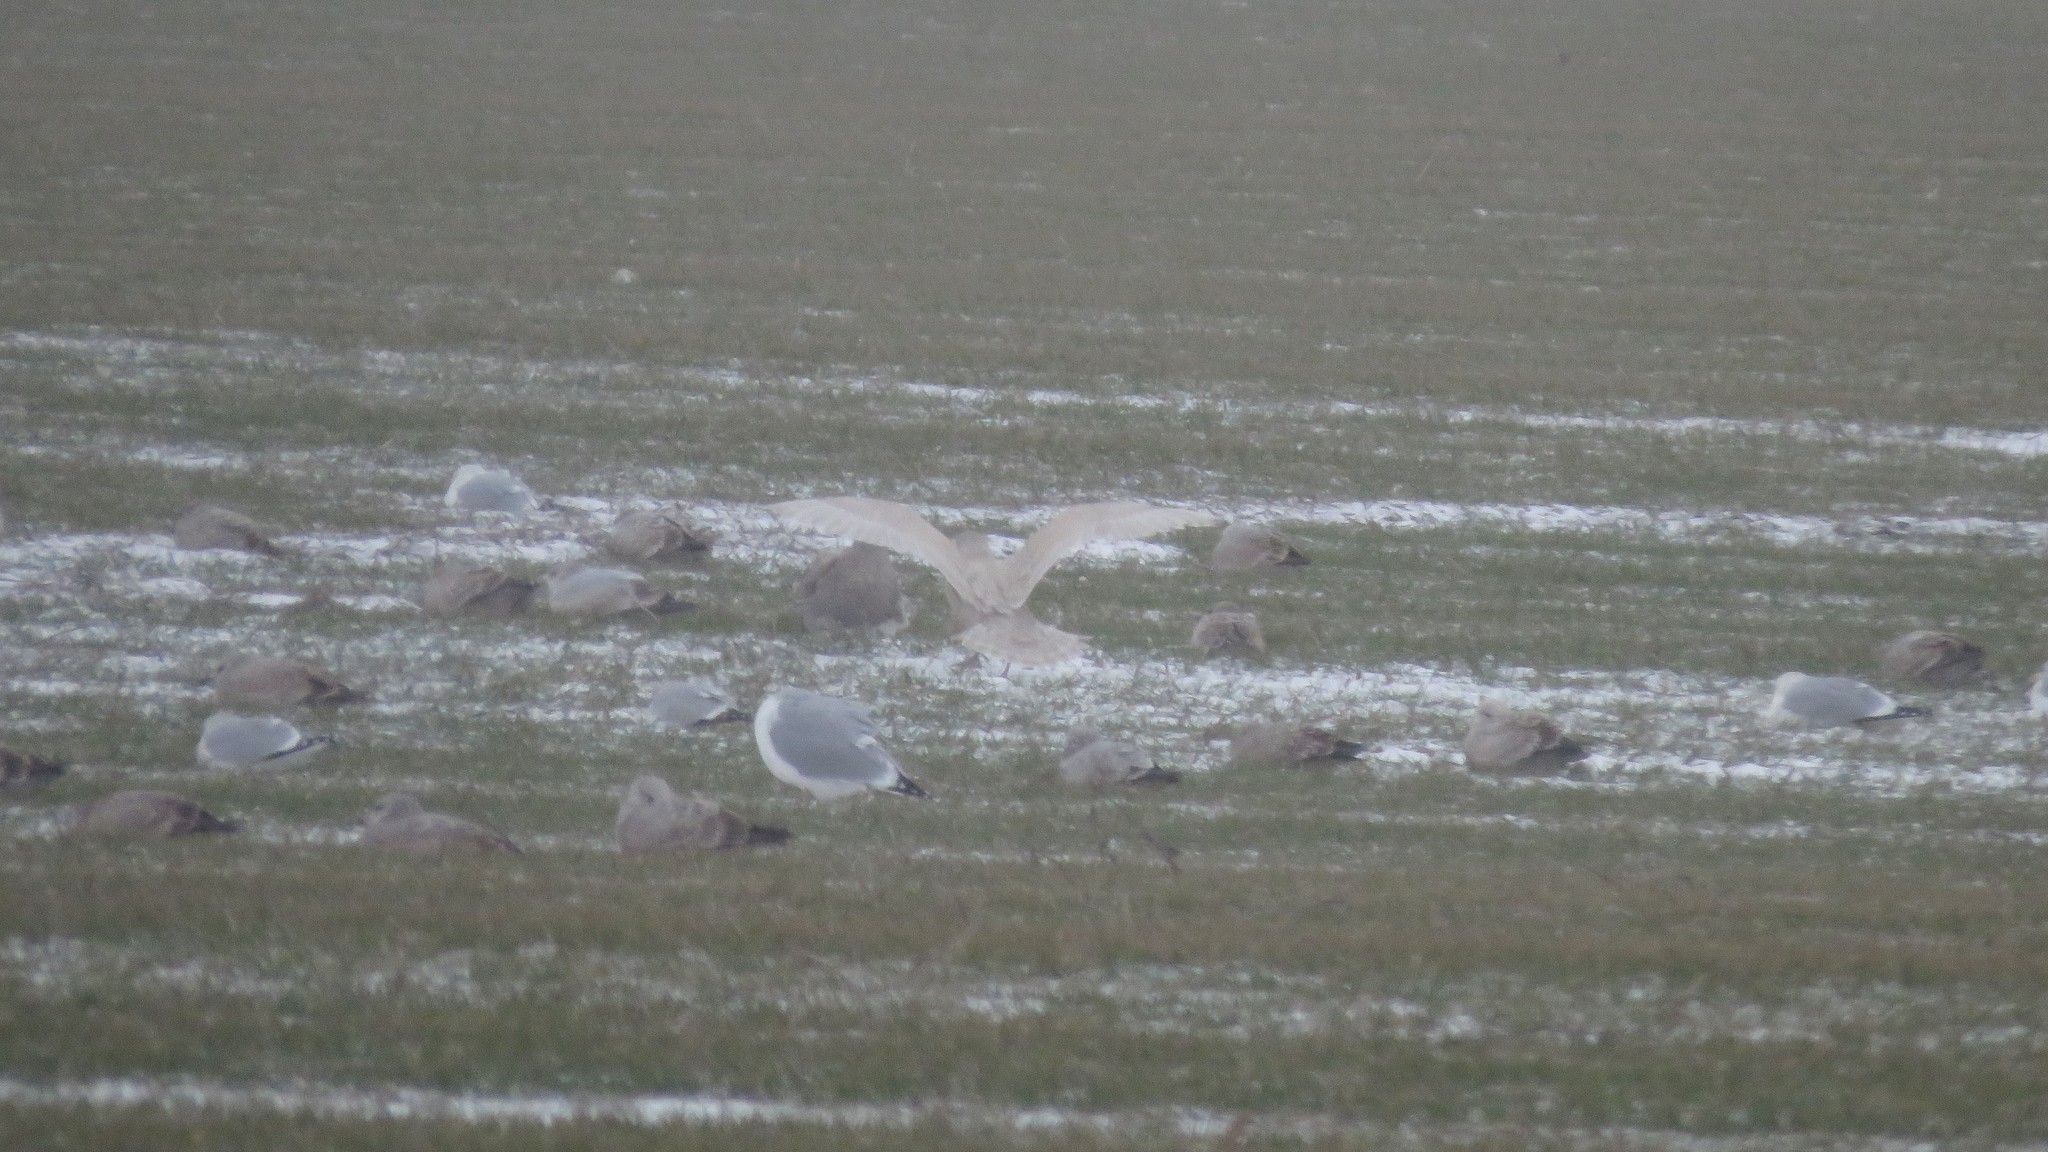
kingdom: Animalia
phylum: Chordata
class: Aves
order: Charadriiformes
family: Laridae
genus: Larus
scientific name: Larus glaucoides
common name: Iceland gull
